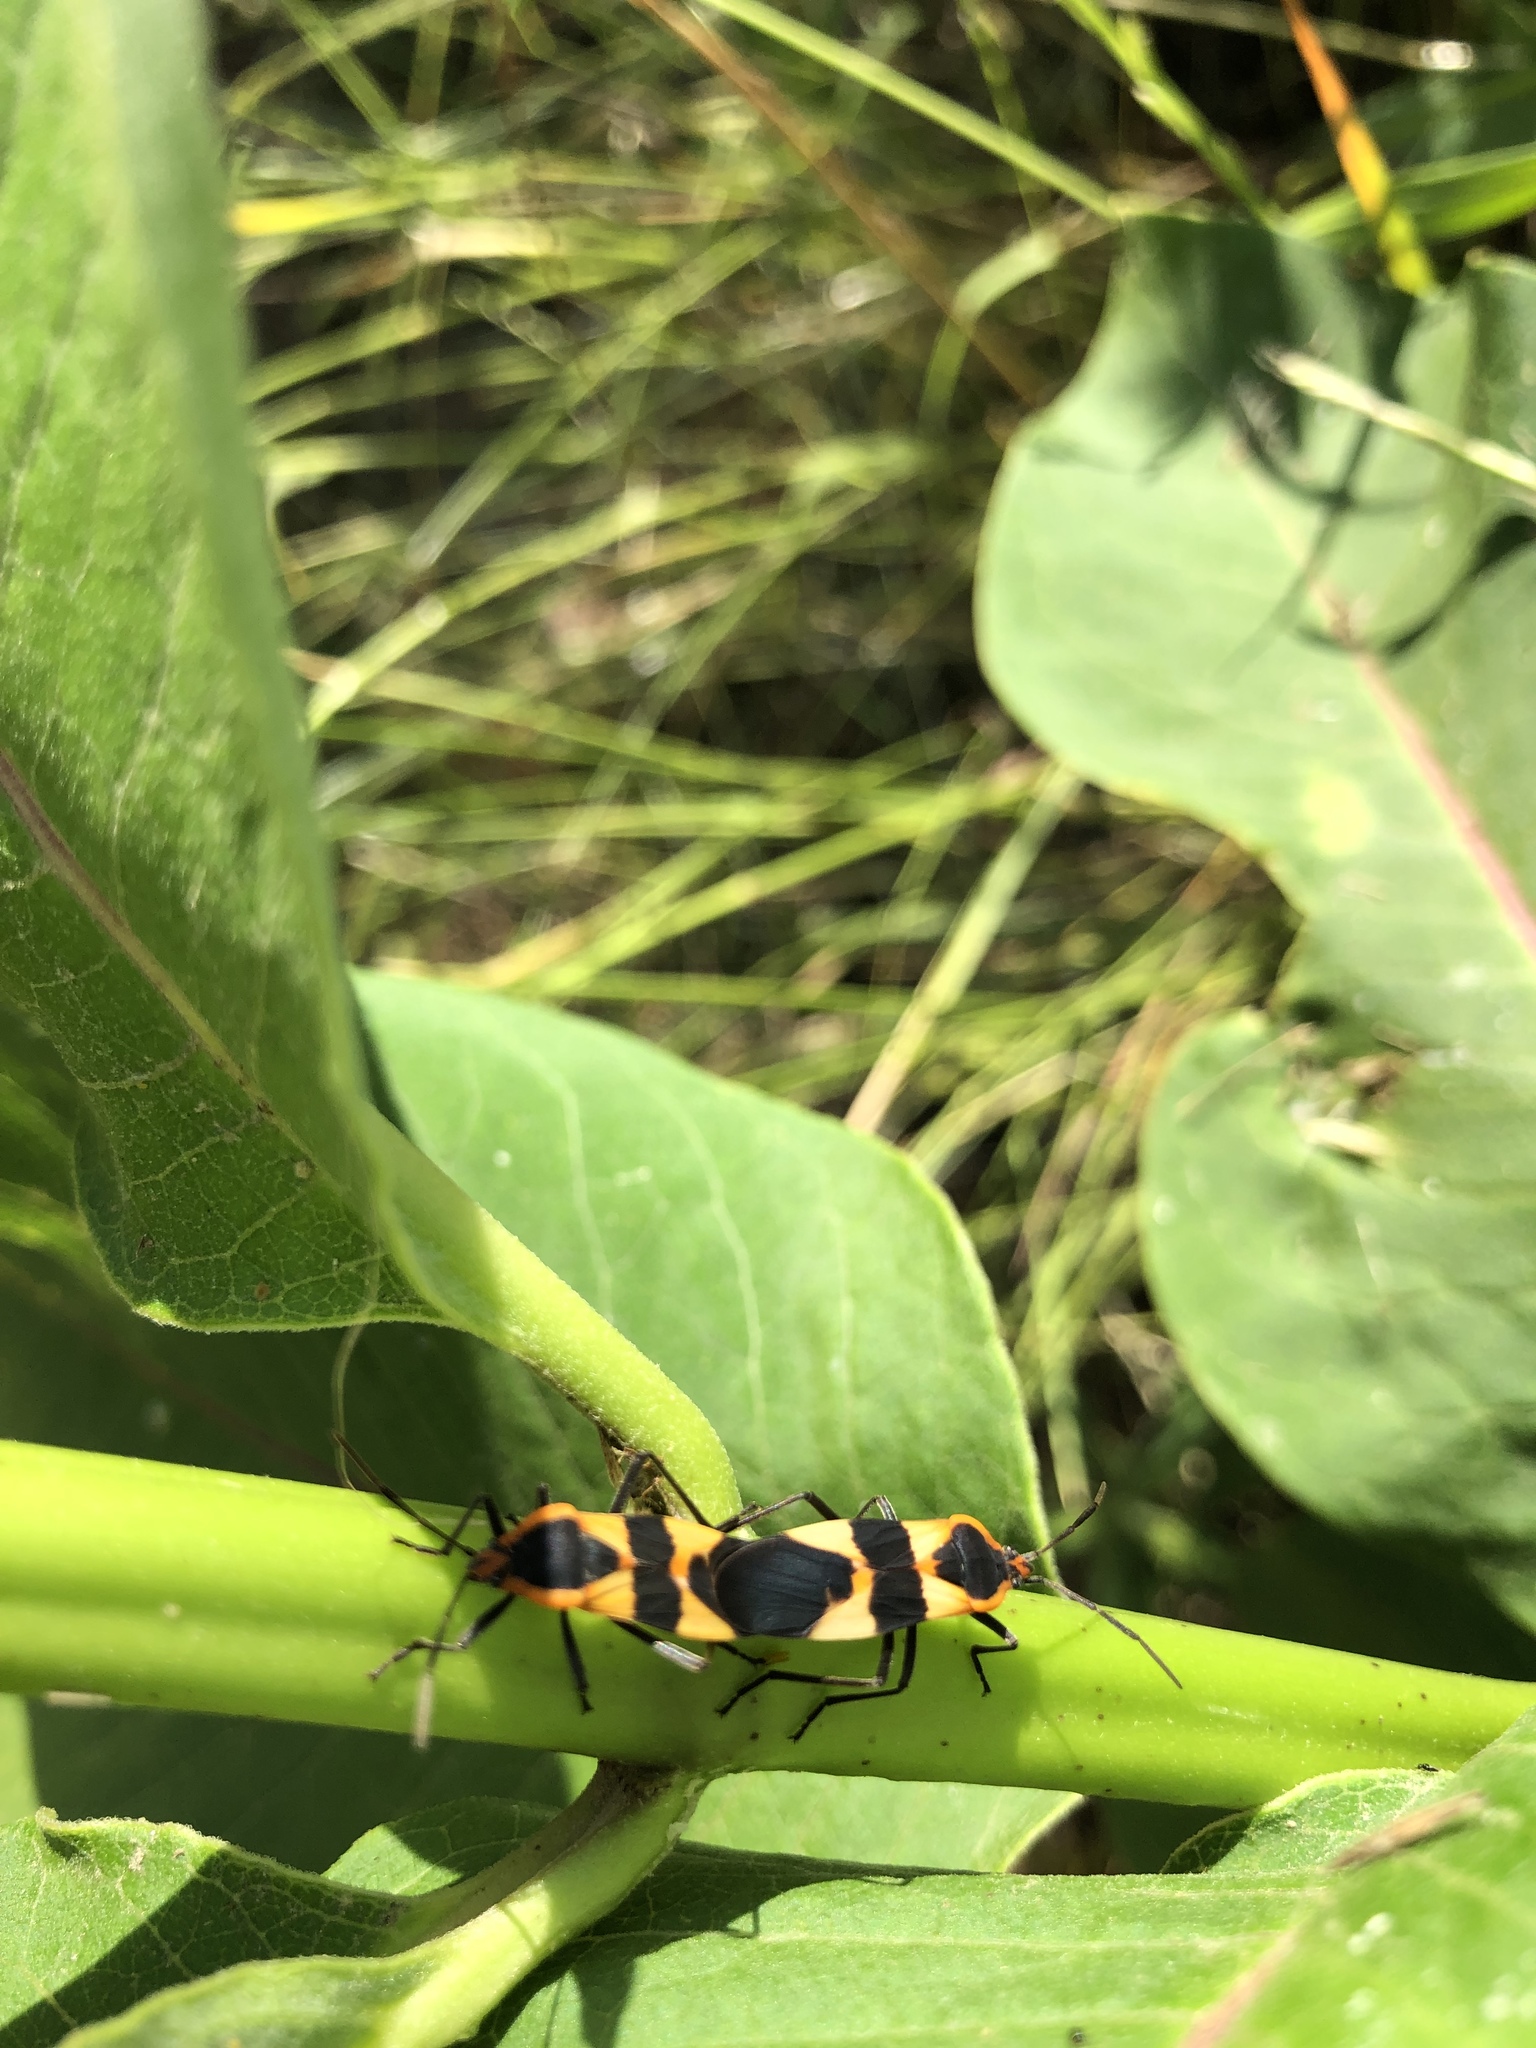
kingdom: Animalia
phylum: Arthropoda
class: Insecta
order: Hemiptera
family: Lygaeidae
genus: Oncopeltus
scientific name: Oncopeltus fasciatus
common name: Large milkweed bug
